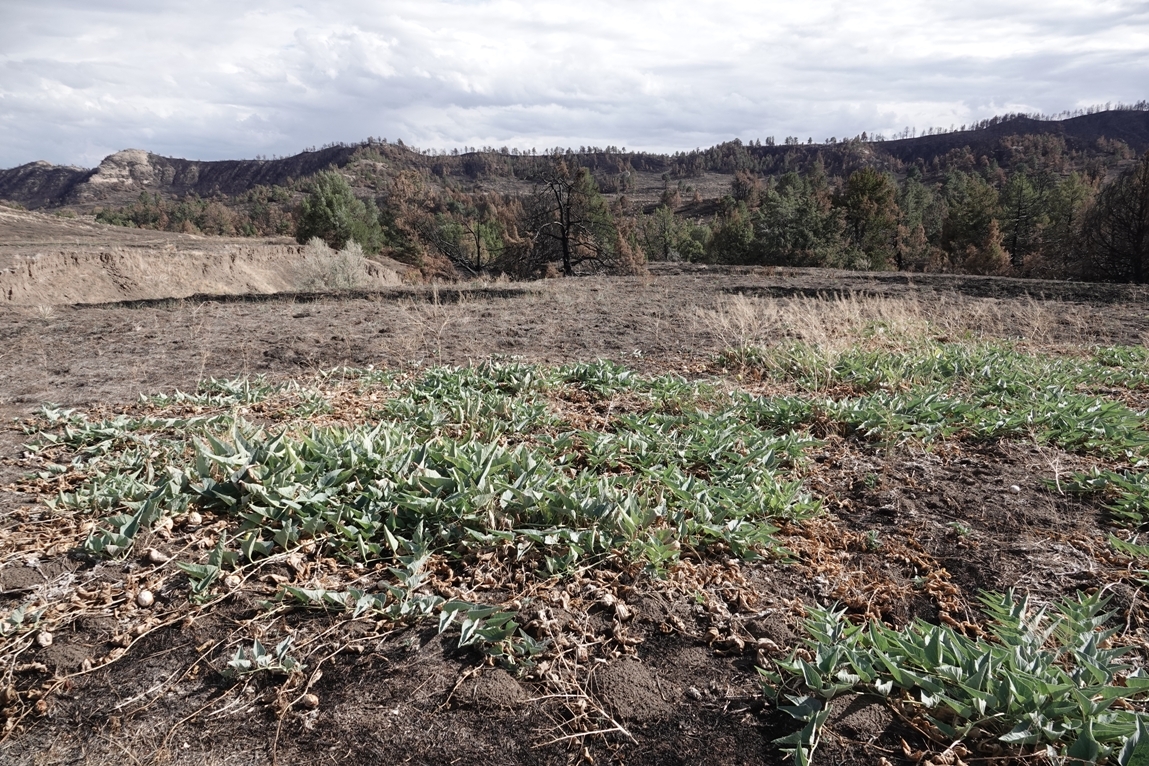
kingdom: Plantae
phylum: Tracheophyta
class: Magnoliopsida
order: Cucurbitales
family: Cucurbitaceae
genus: Cucurbita
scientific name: Cucurbita foetidissima
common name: Buffalo gourd
